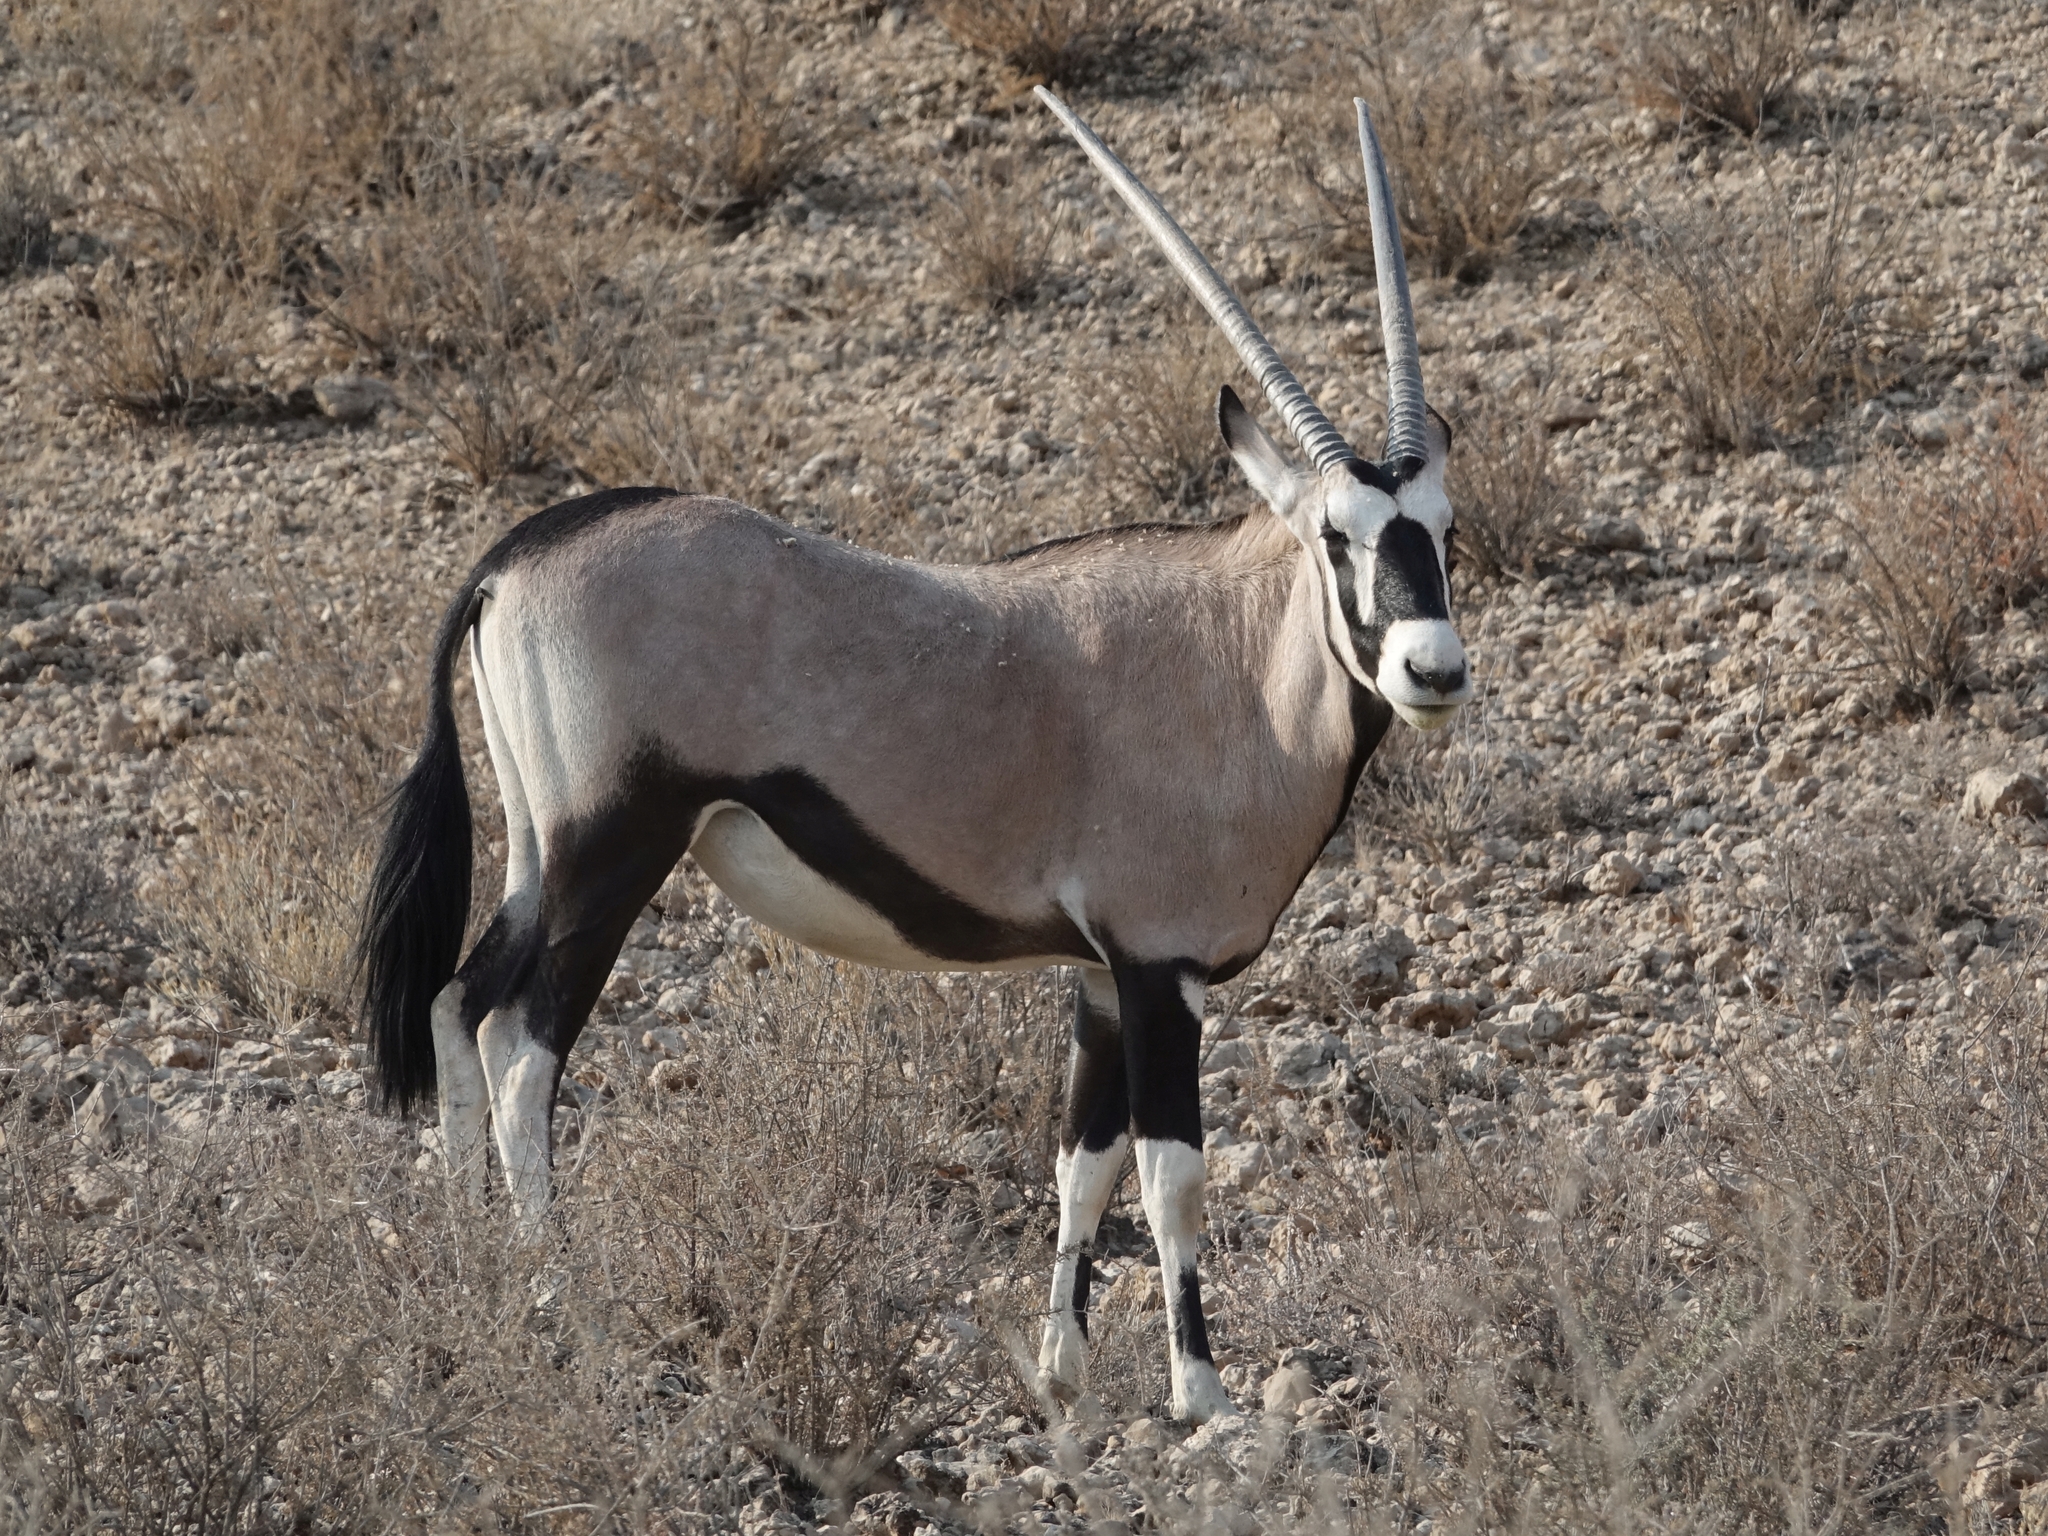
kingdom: Animalia
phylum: Chordata
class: Mammalia
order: Artiodactyla
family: Bovidae
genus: Oryx
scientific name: Oryx gazella
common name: Gemsbok
